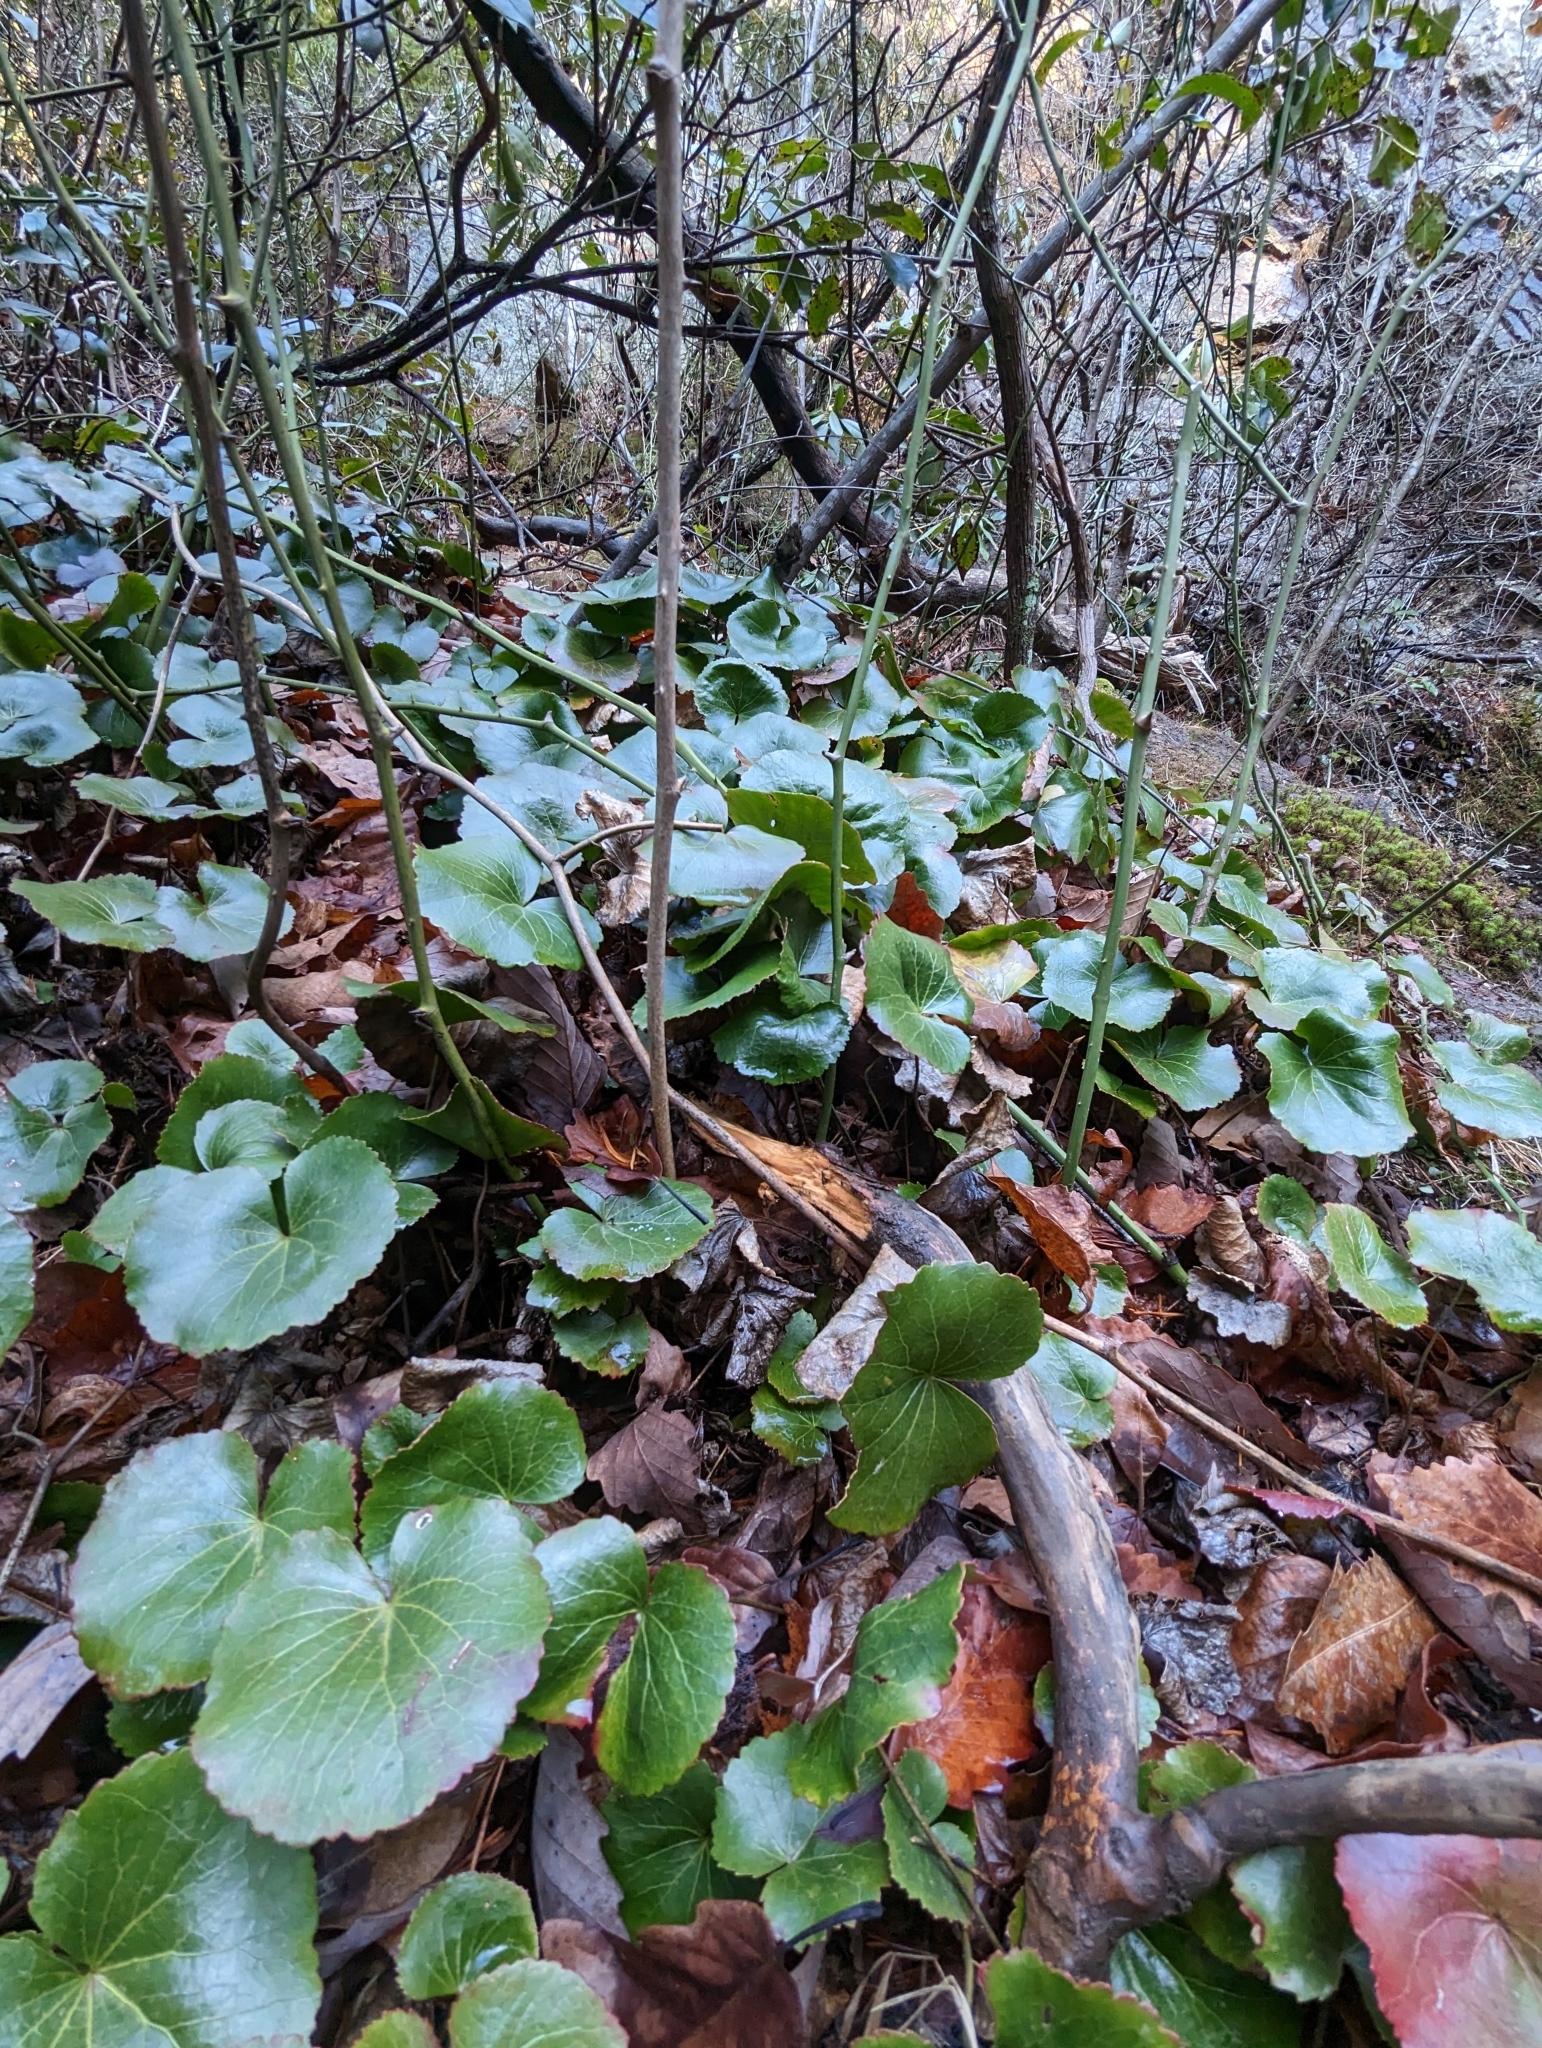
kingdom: Plantae
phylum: Tracheophyta
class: Magnoliopsida
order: Ericales
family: Diapensiaceae
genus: Galax
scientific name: Galax urceolata
